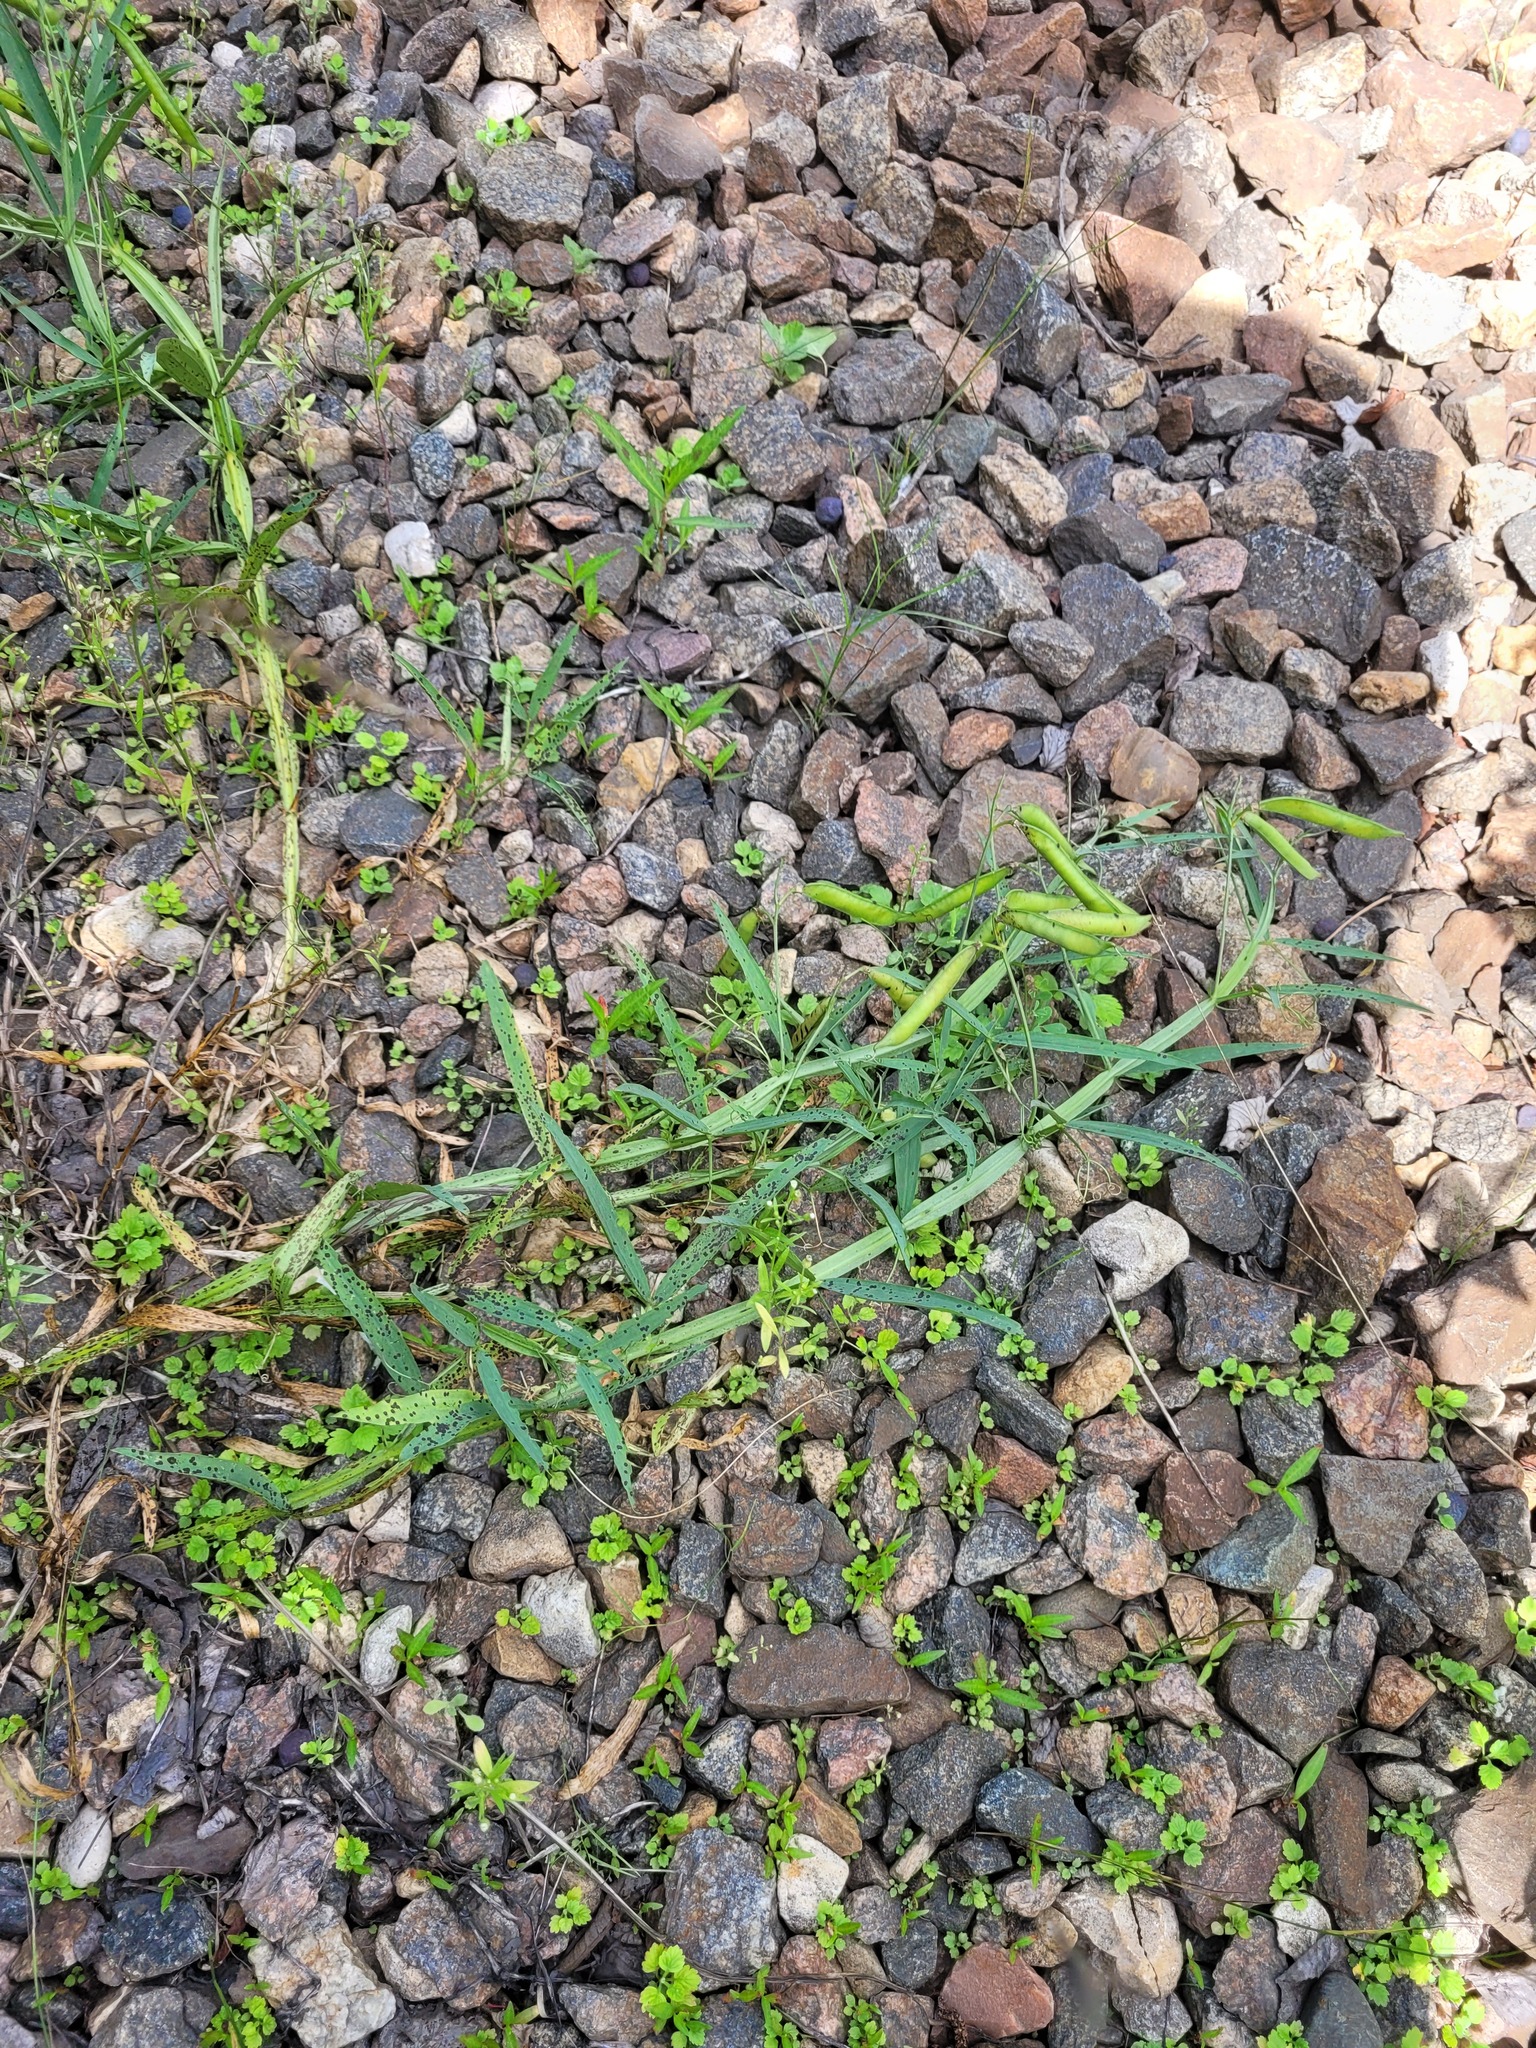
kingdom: Plantae
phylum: Tracheophyta
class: Magnoliopsida
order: Fabales
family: Fabaceae
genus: Lathyrus
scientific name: Lathyrus sylvestris
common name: Flat pea
